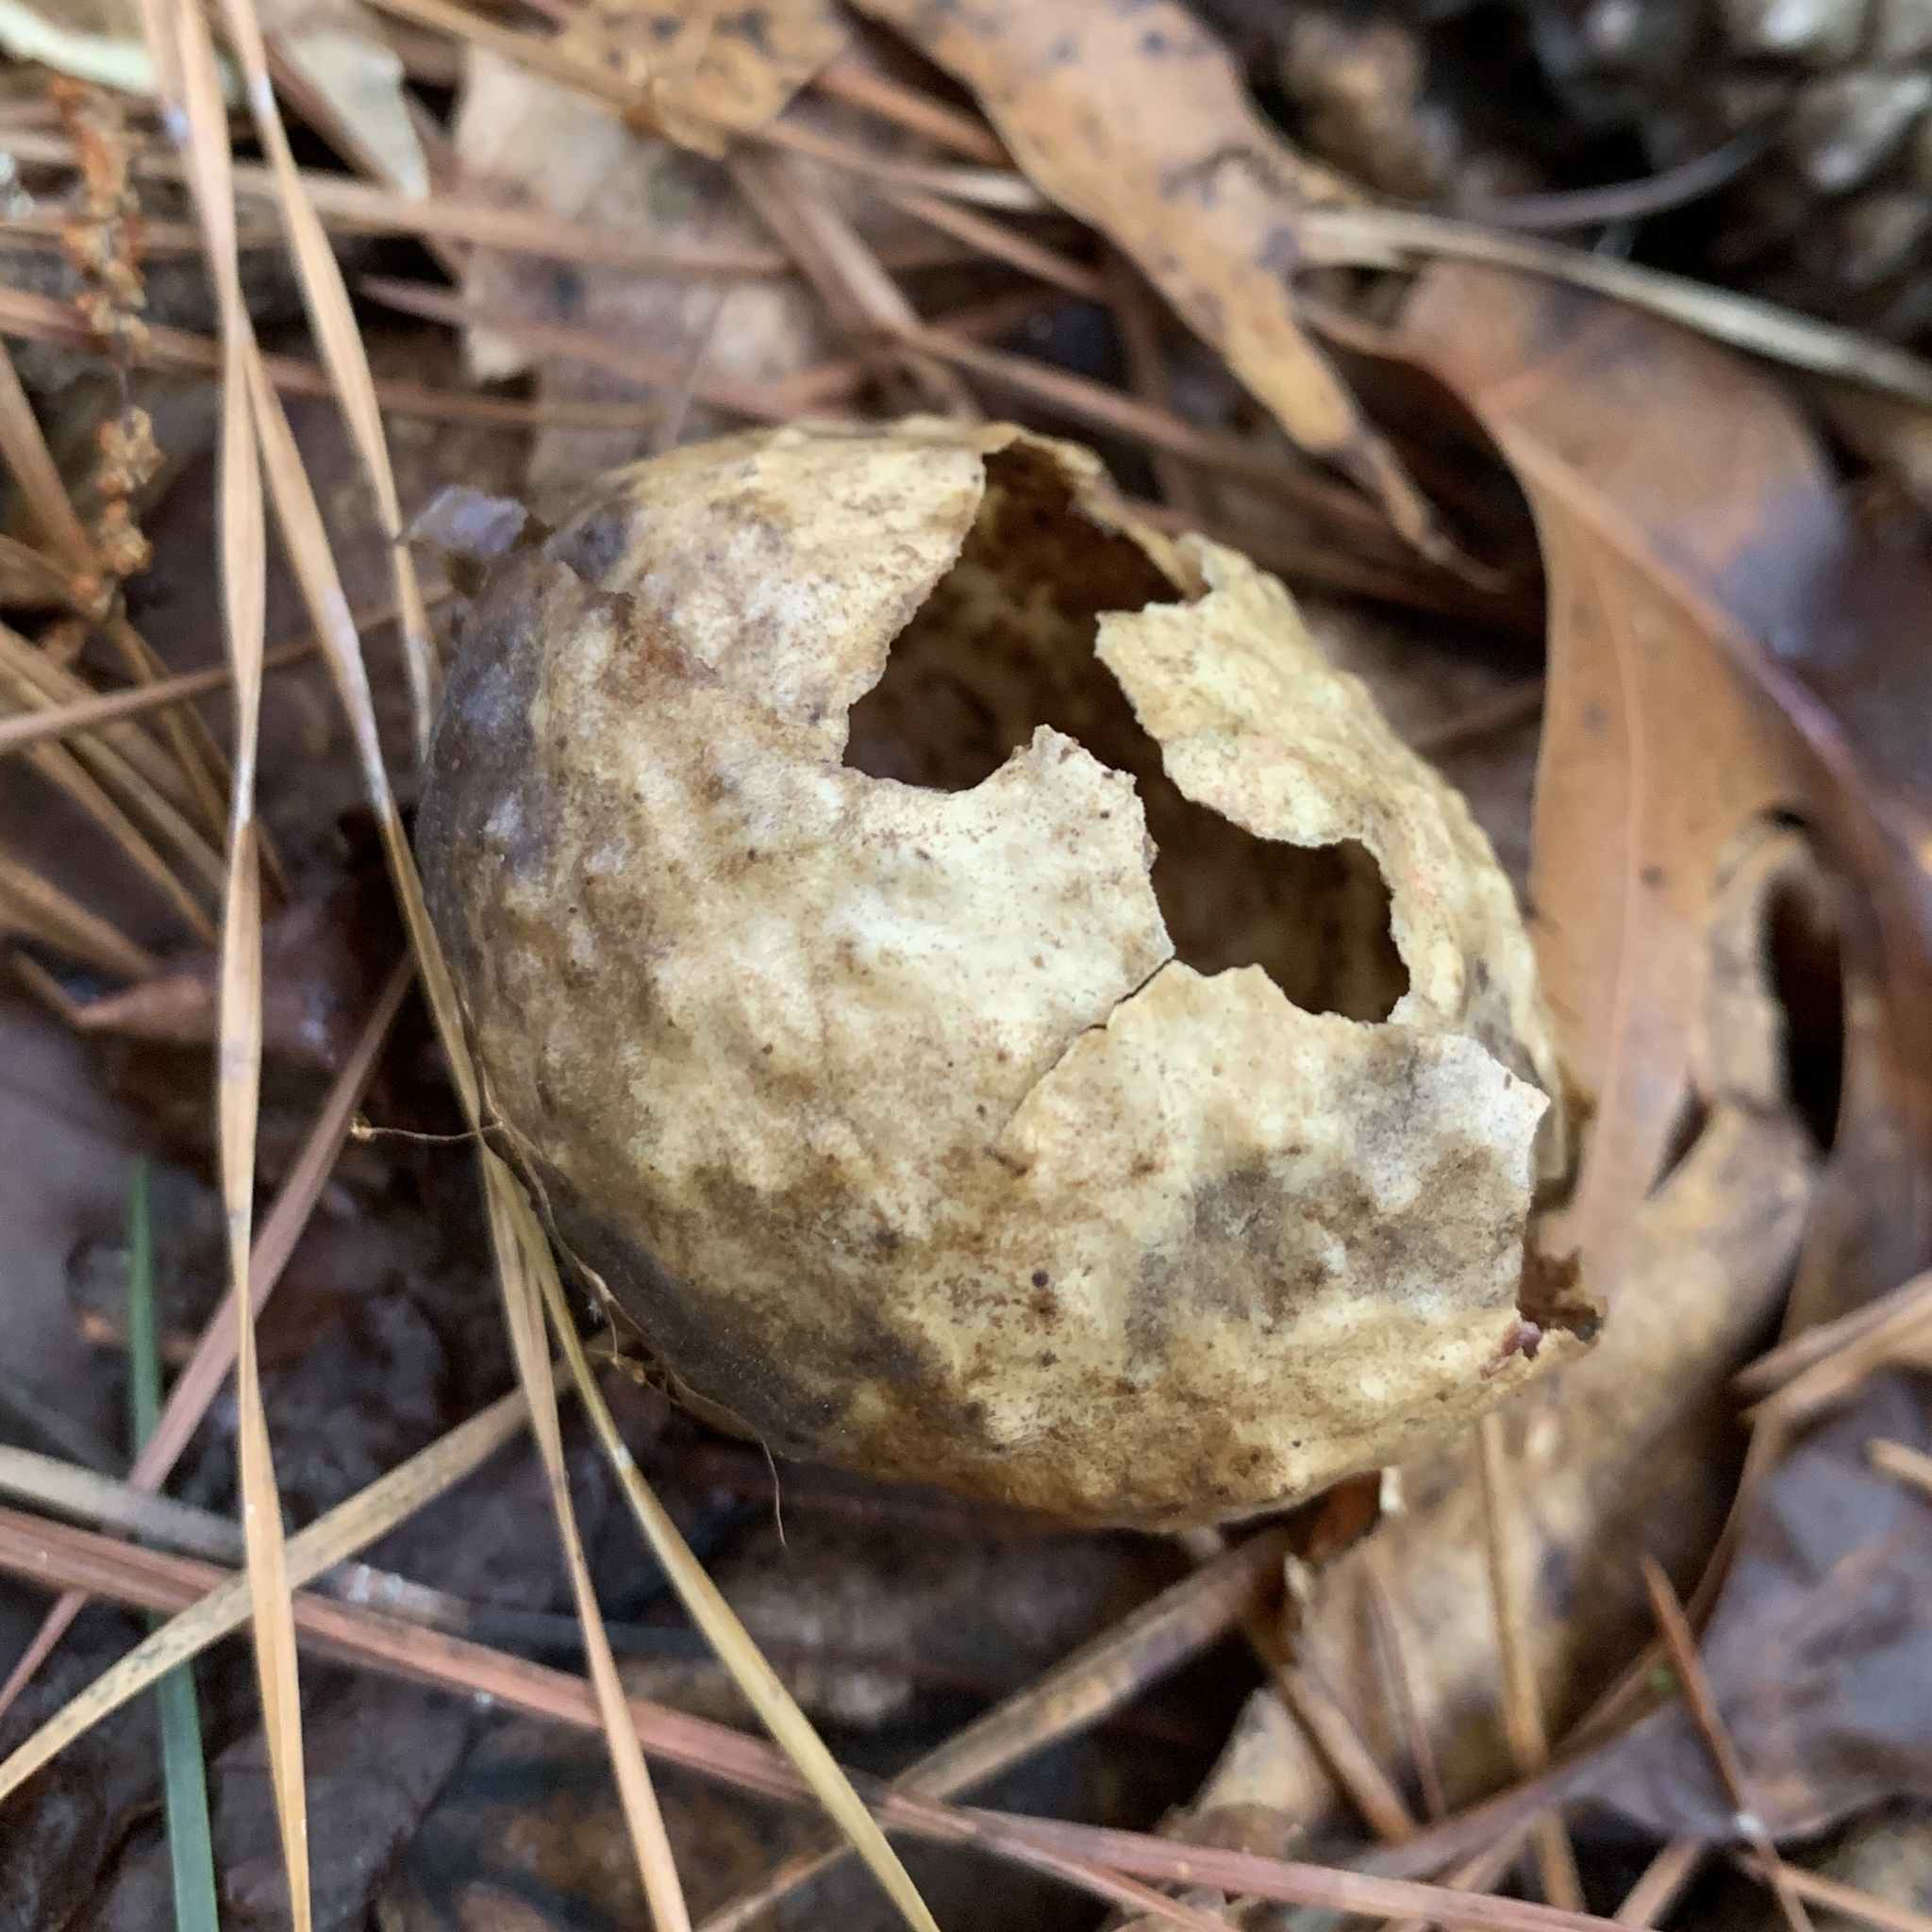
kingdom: Animalia
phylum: Arthropoda
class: Insecta
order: Hymenoptera
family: Cynipidae
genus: Amphibolips
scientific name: Amphibolips
